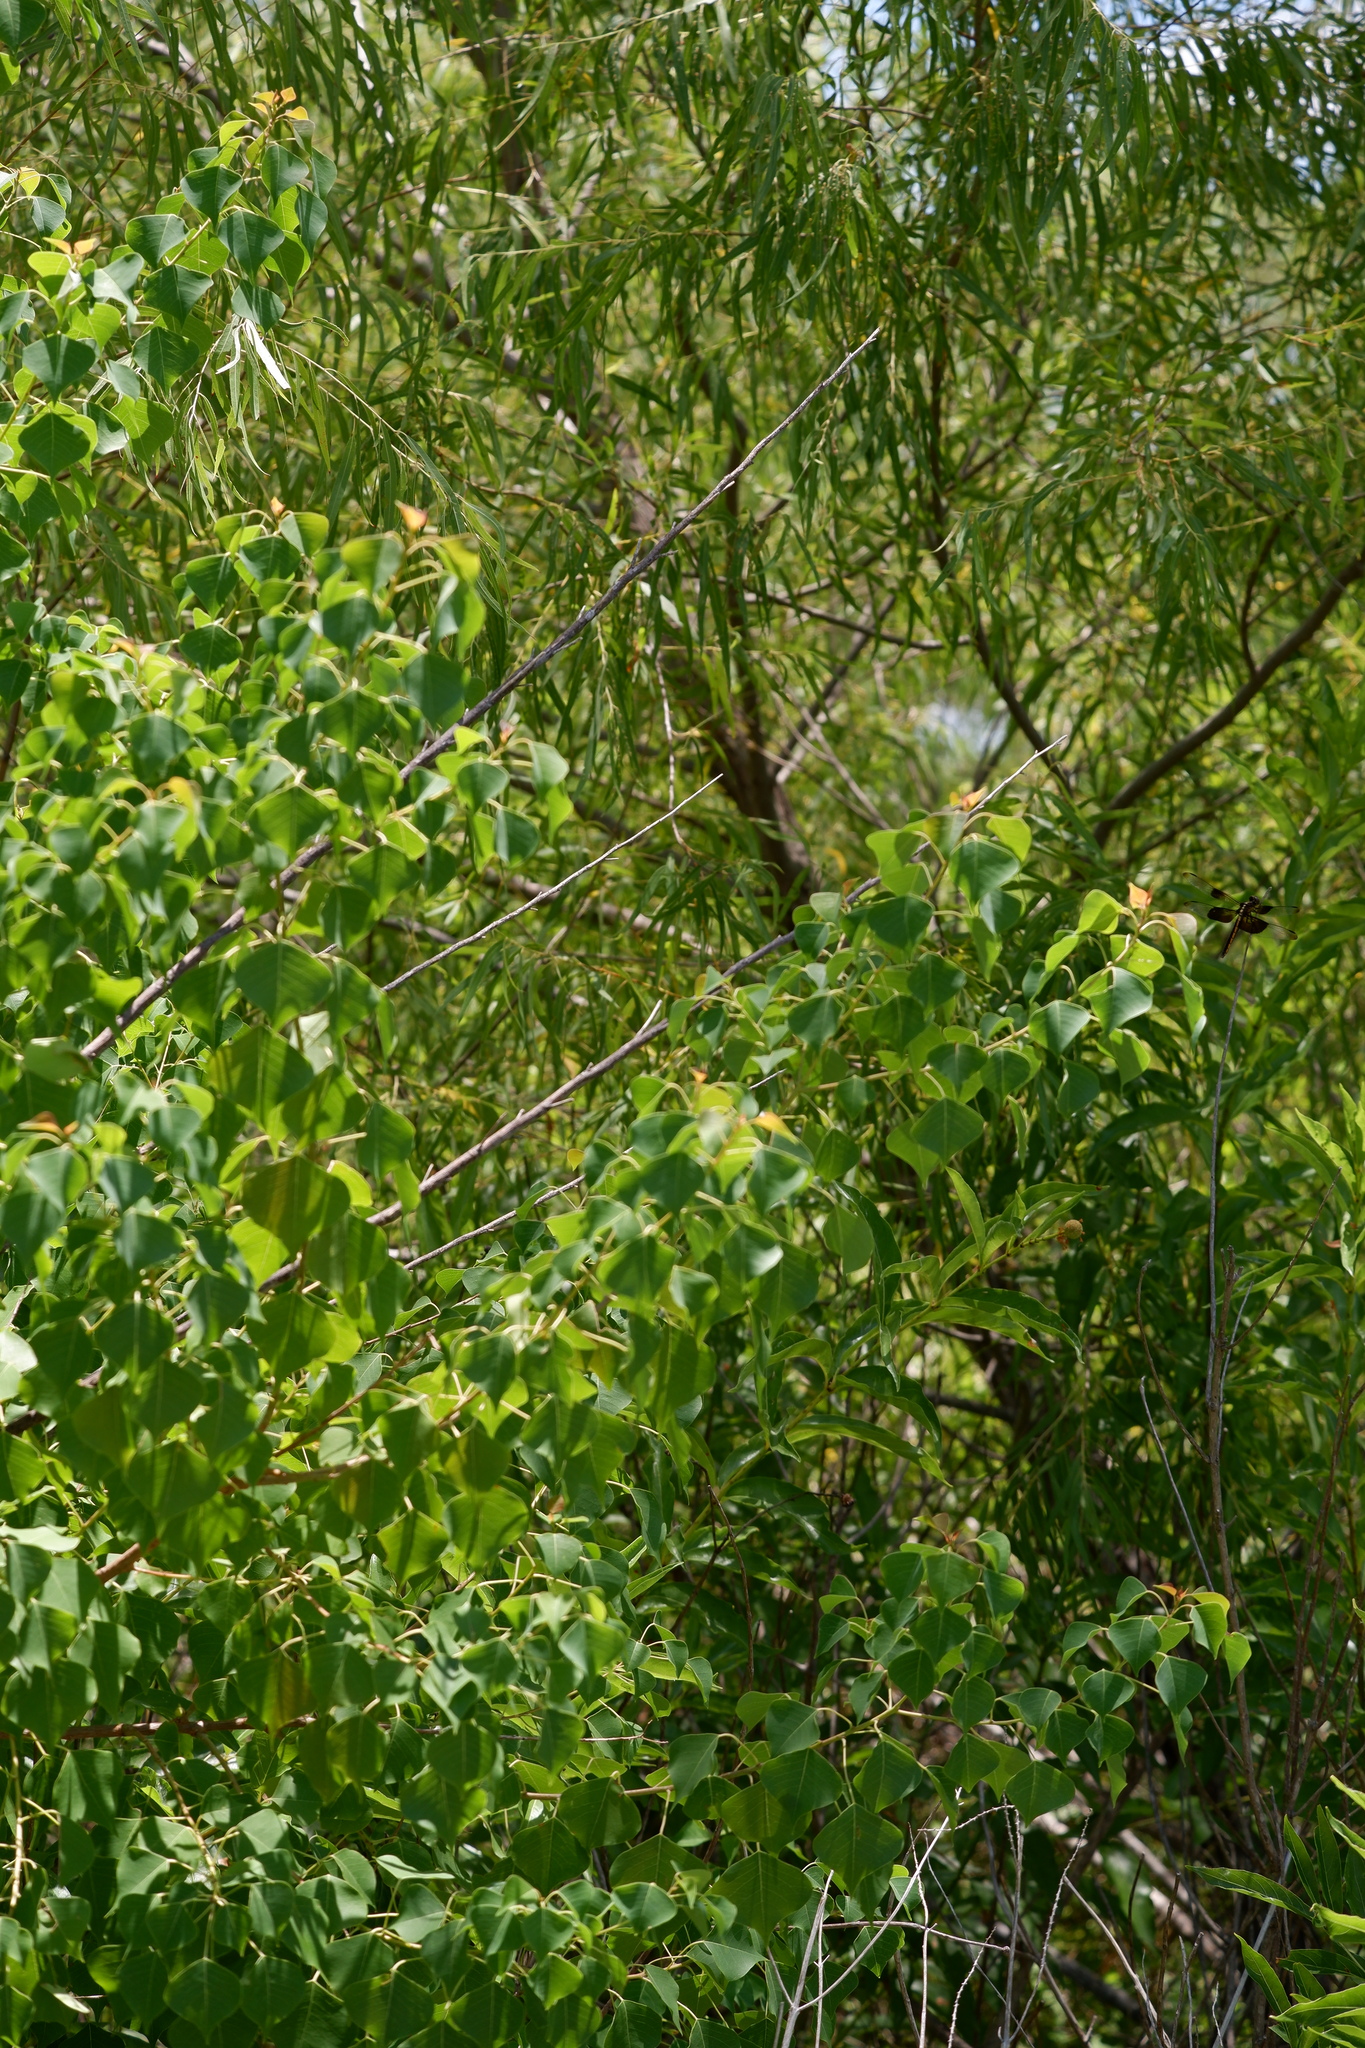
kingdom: Plantae
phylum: Tracheophyta
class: Magnoliopsida
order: Malpighiales
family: Euphorbiaceae
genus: Triadica
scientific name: Triadica sebifera
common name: Chinese tallow
